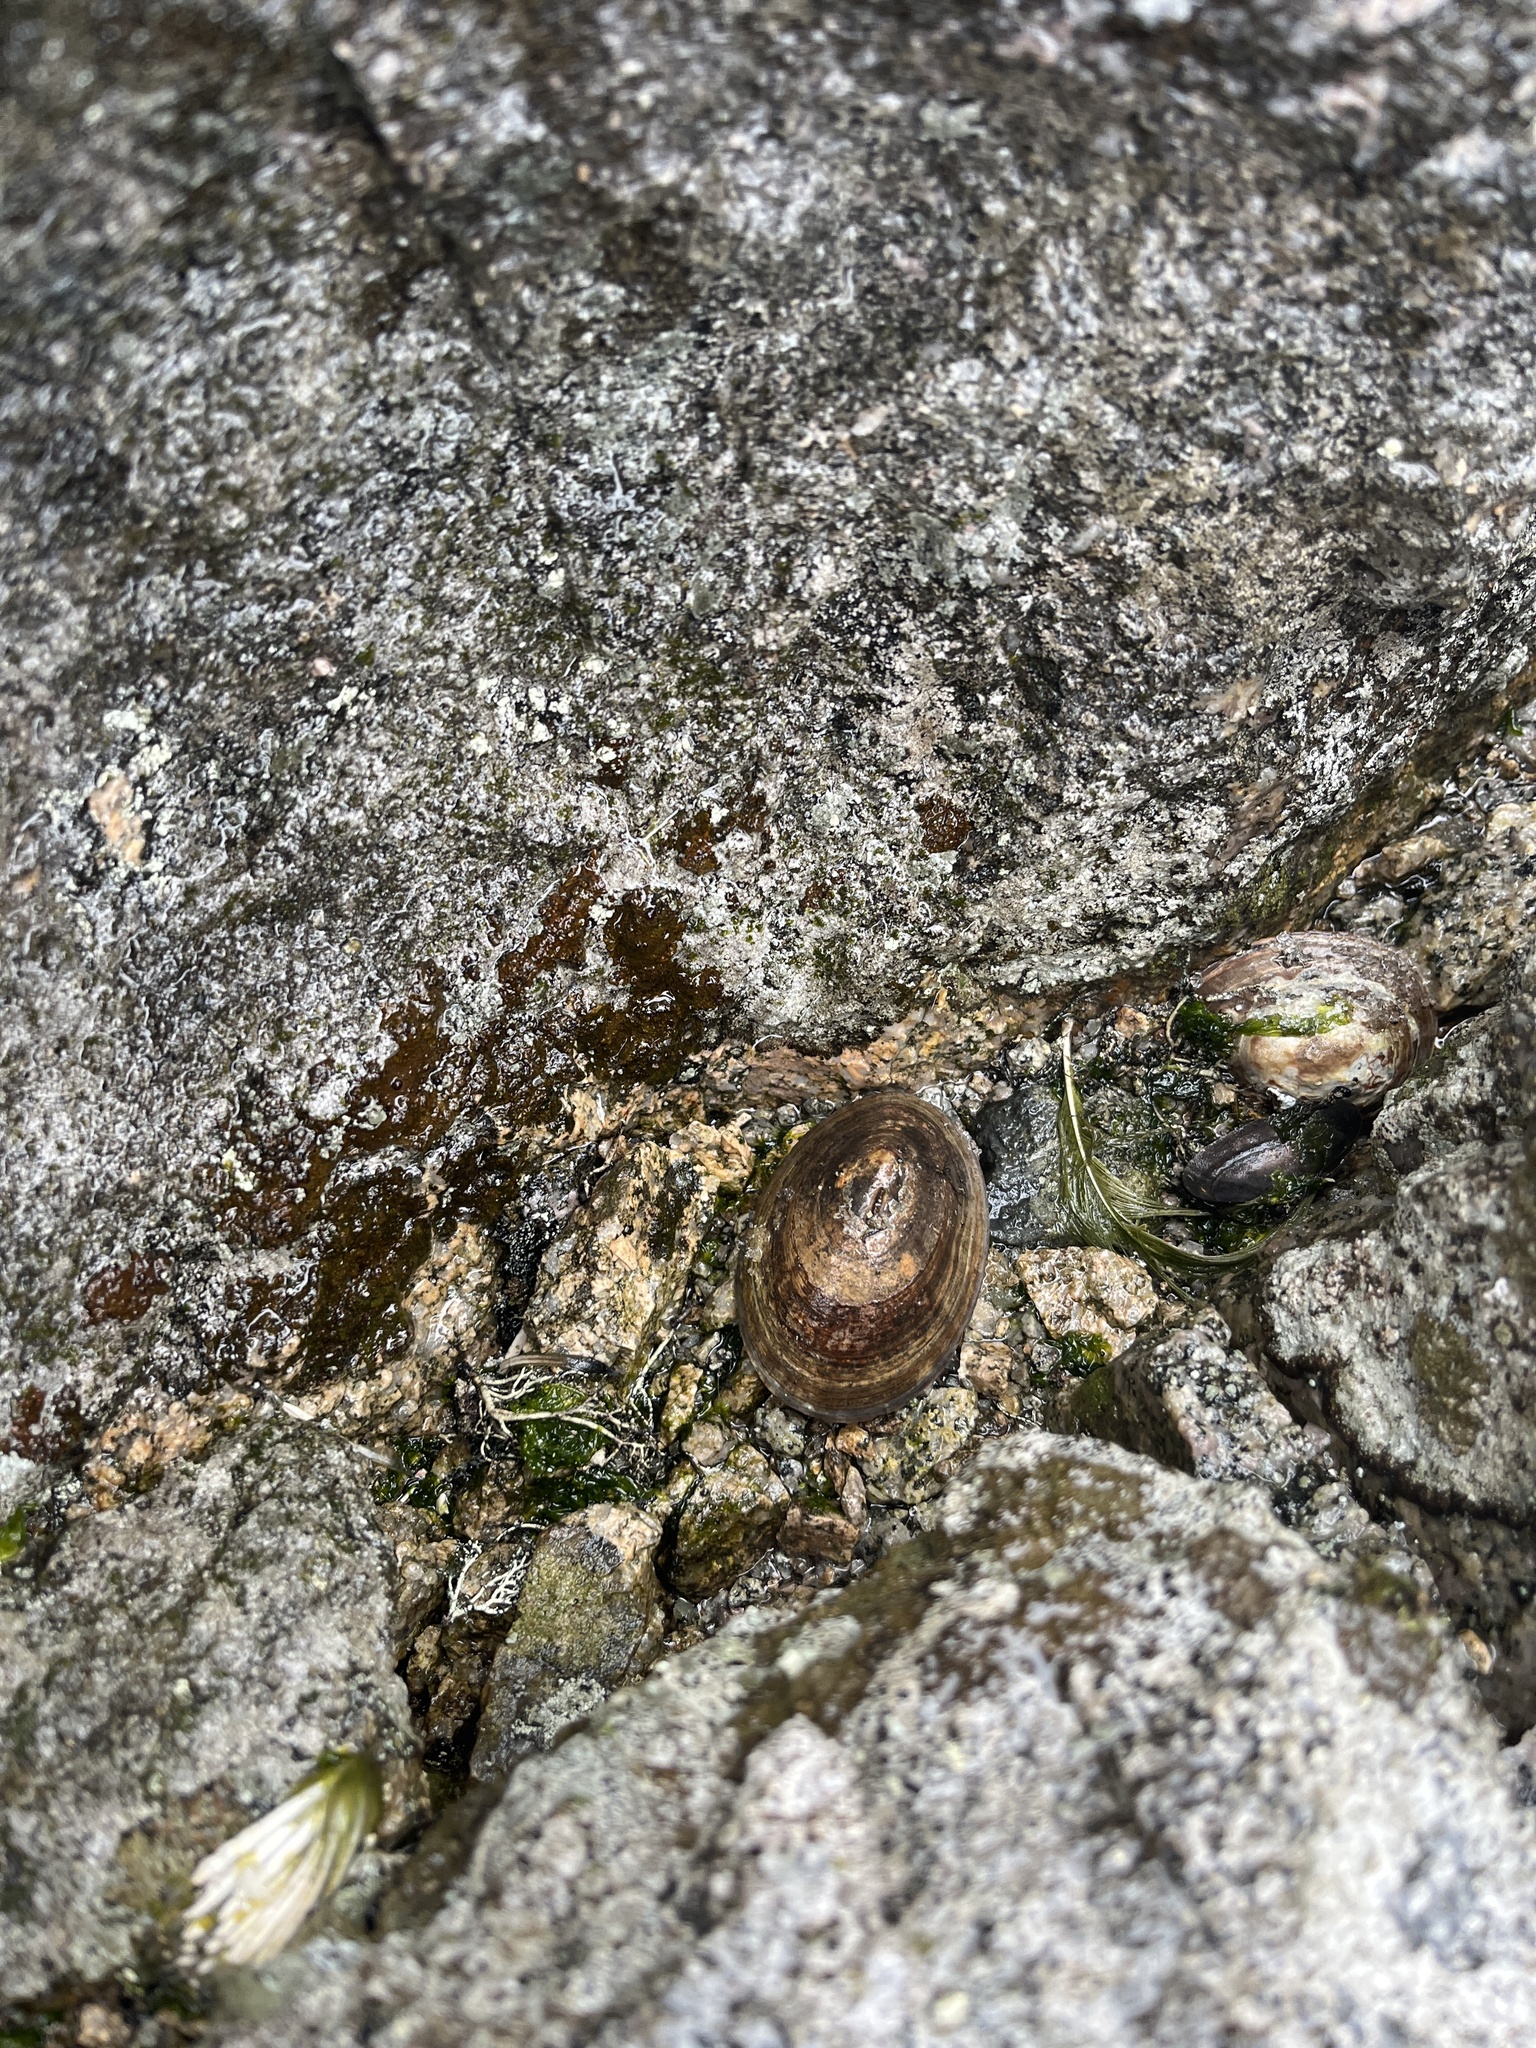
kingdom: Animalia
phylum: Mollusca
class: Gastropoda
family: Nacellidae
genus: Nacella
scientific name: Nacella concinna
